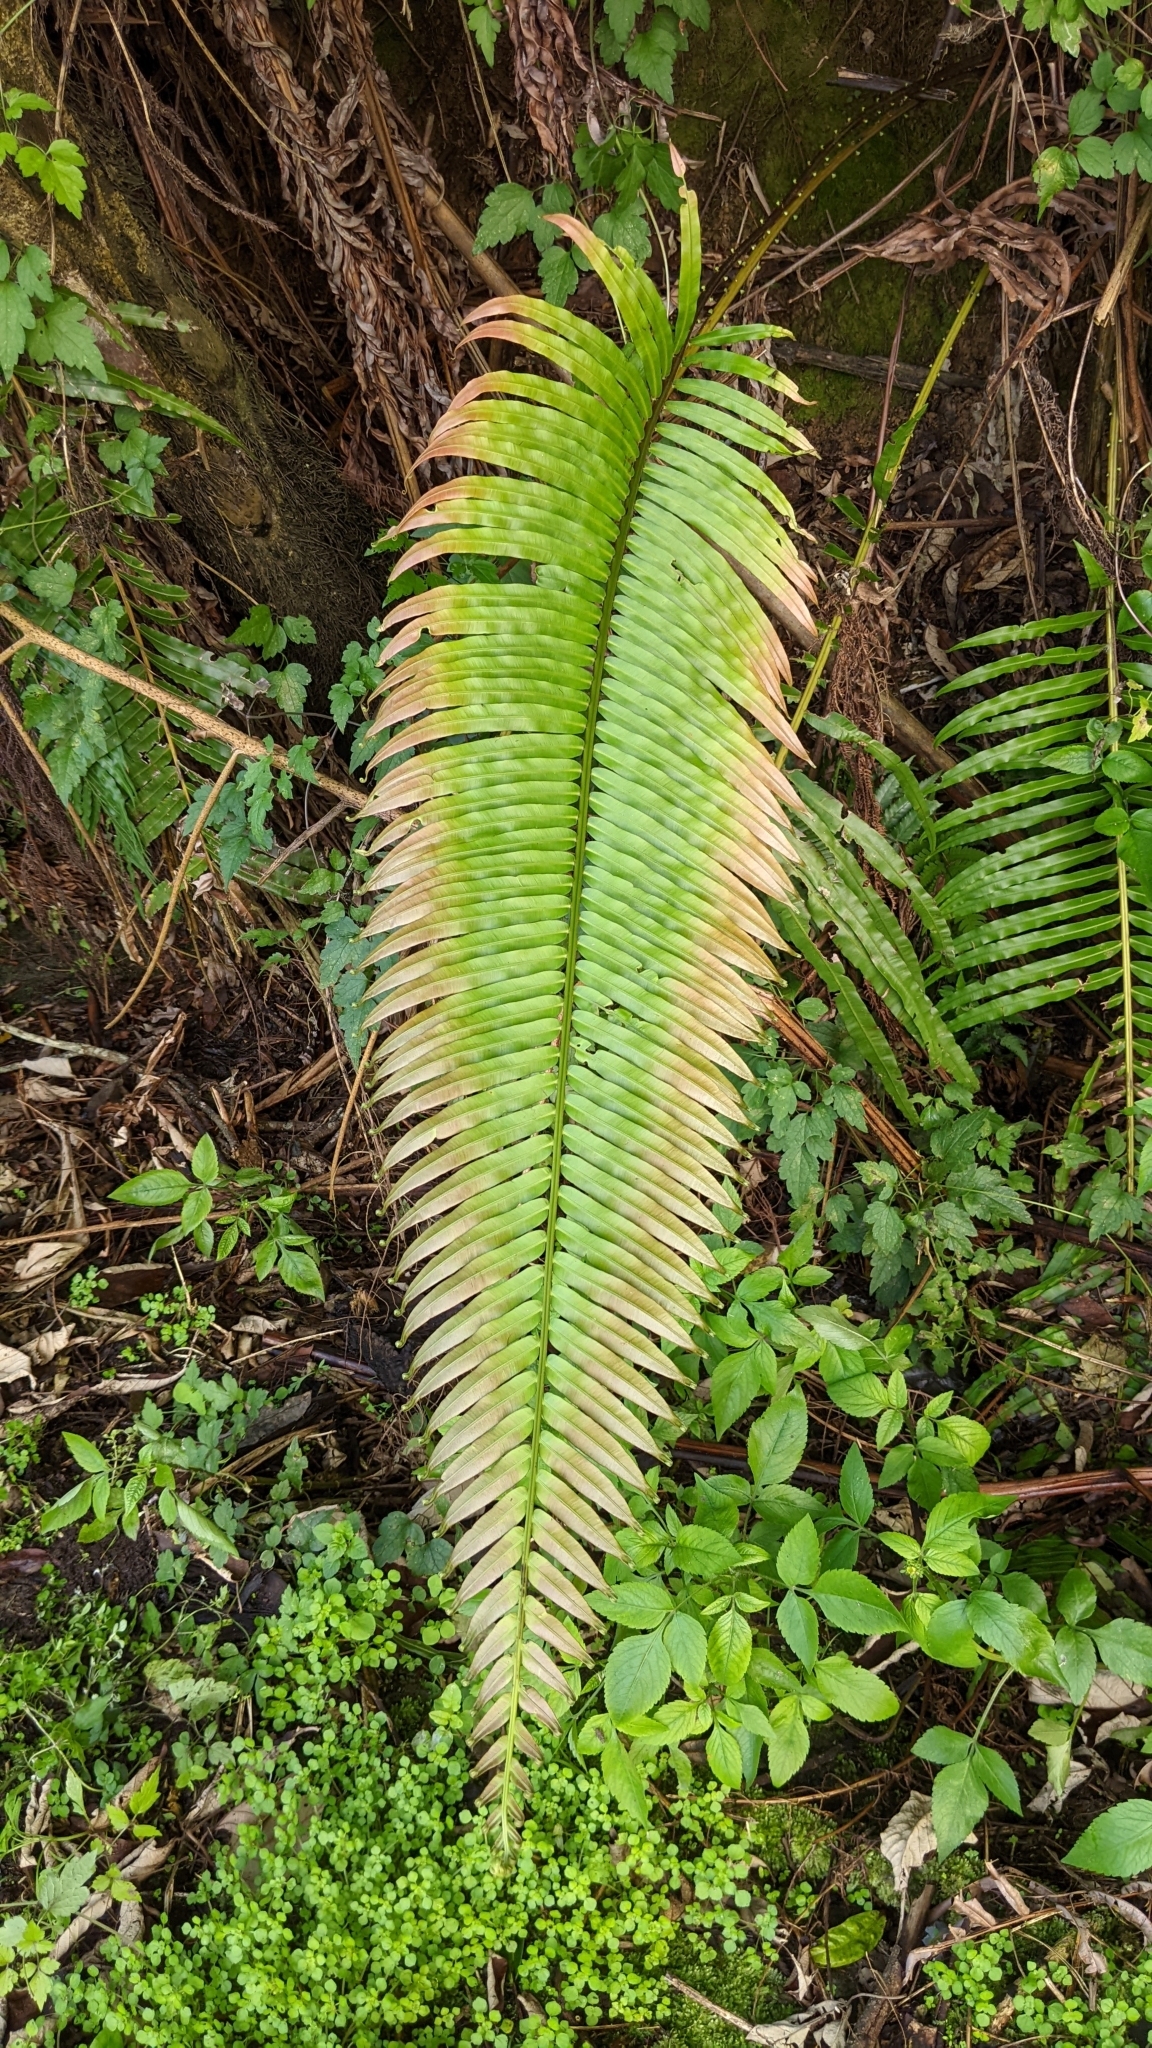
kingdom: Plantae
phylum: Tracheophyta
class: Polypodiopsida
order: Polypodiales
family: Blechnaceae
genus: Blechnopsis
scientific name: Blechnopsis orientalis
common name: Oriental blechnum
